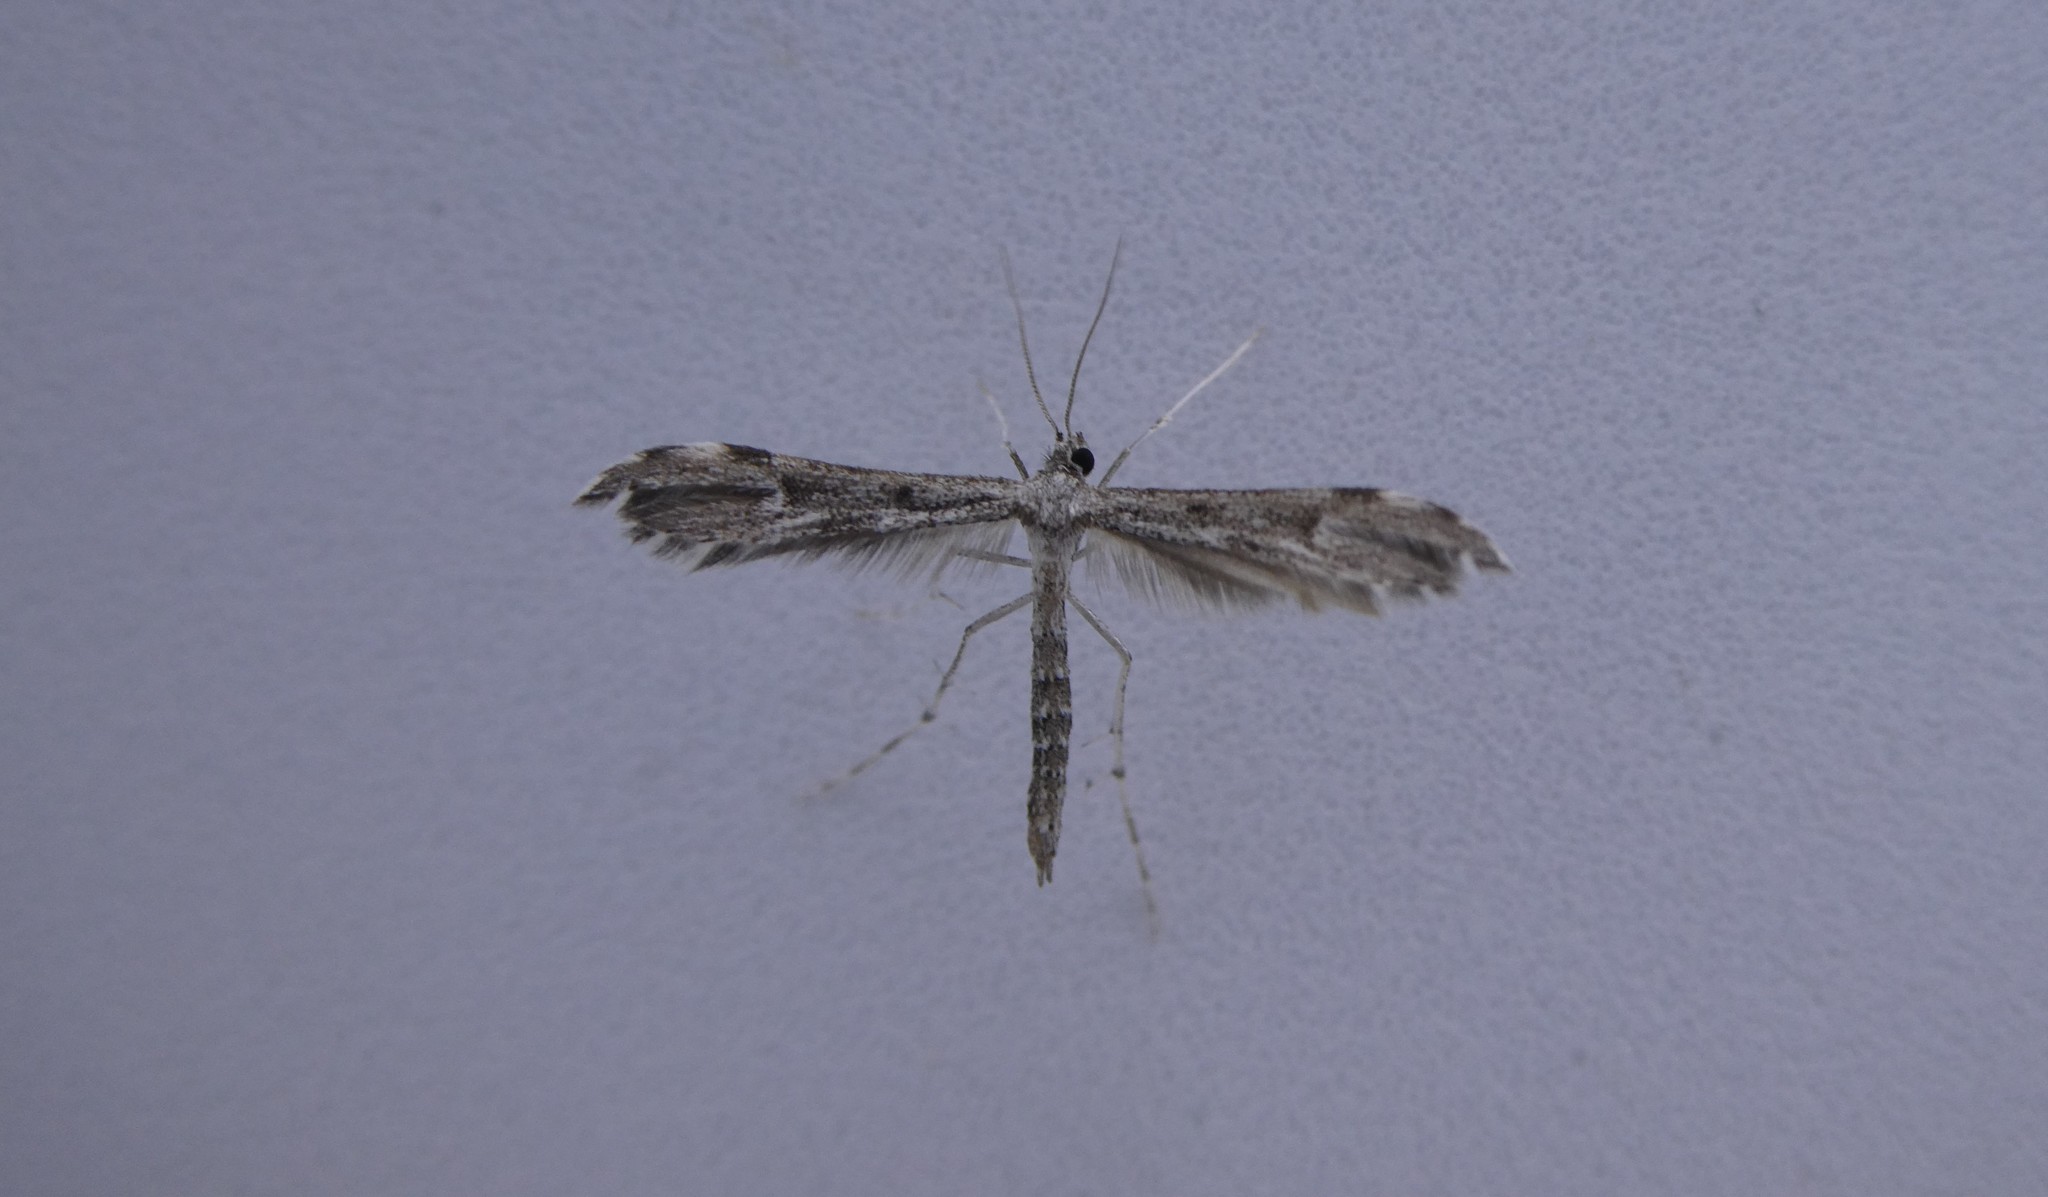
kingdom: Animalia
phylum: Arthropoda
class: Insecta
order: Lepidoptera
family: Pterophoridae
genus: Hellinsia
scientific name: Hellinsia inquinatus
